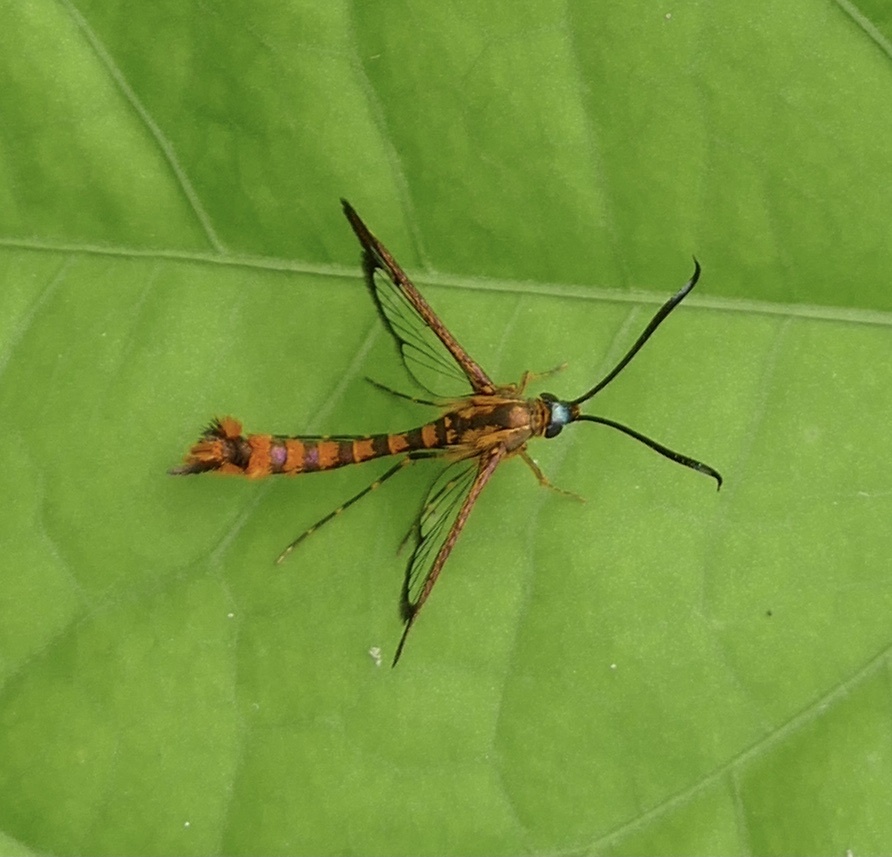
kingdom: Animalia
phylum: Arthropoda
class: Insecta
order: Lepidoptera
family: Sesiidae
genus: Chamanthedon
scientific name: Chamanthedon auronitens
